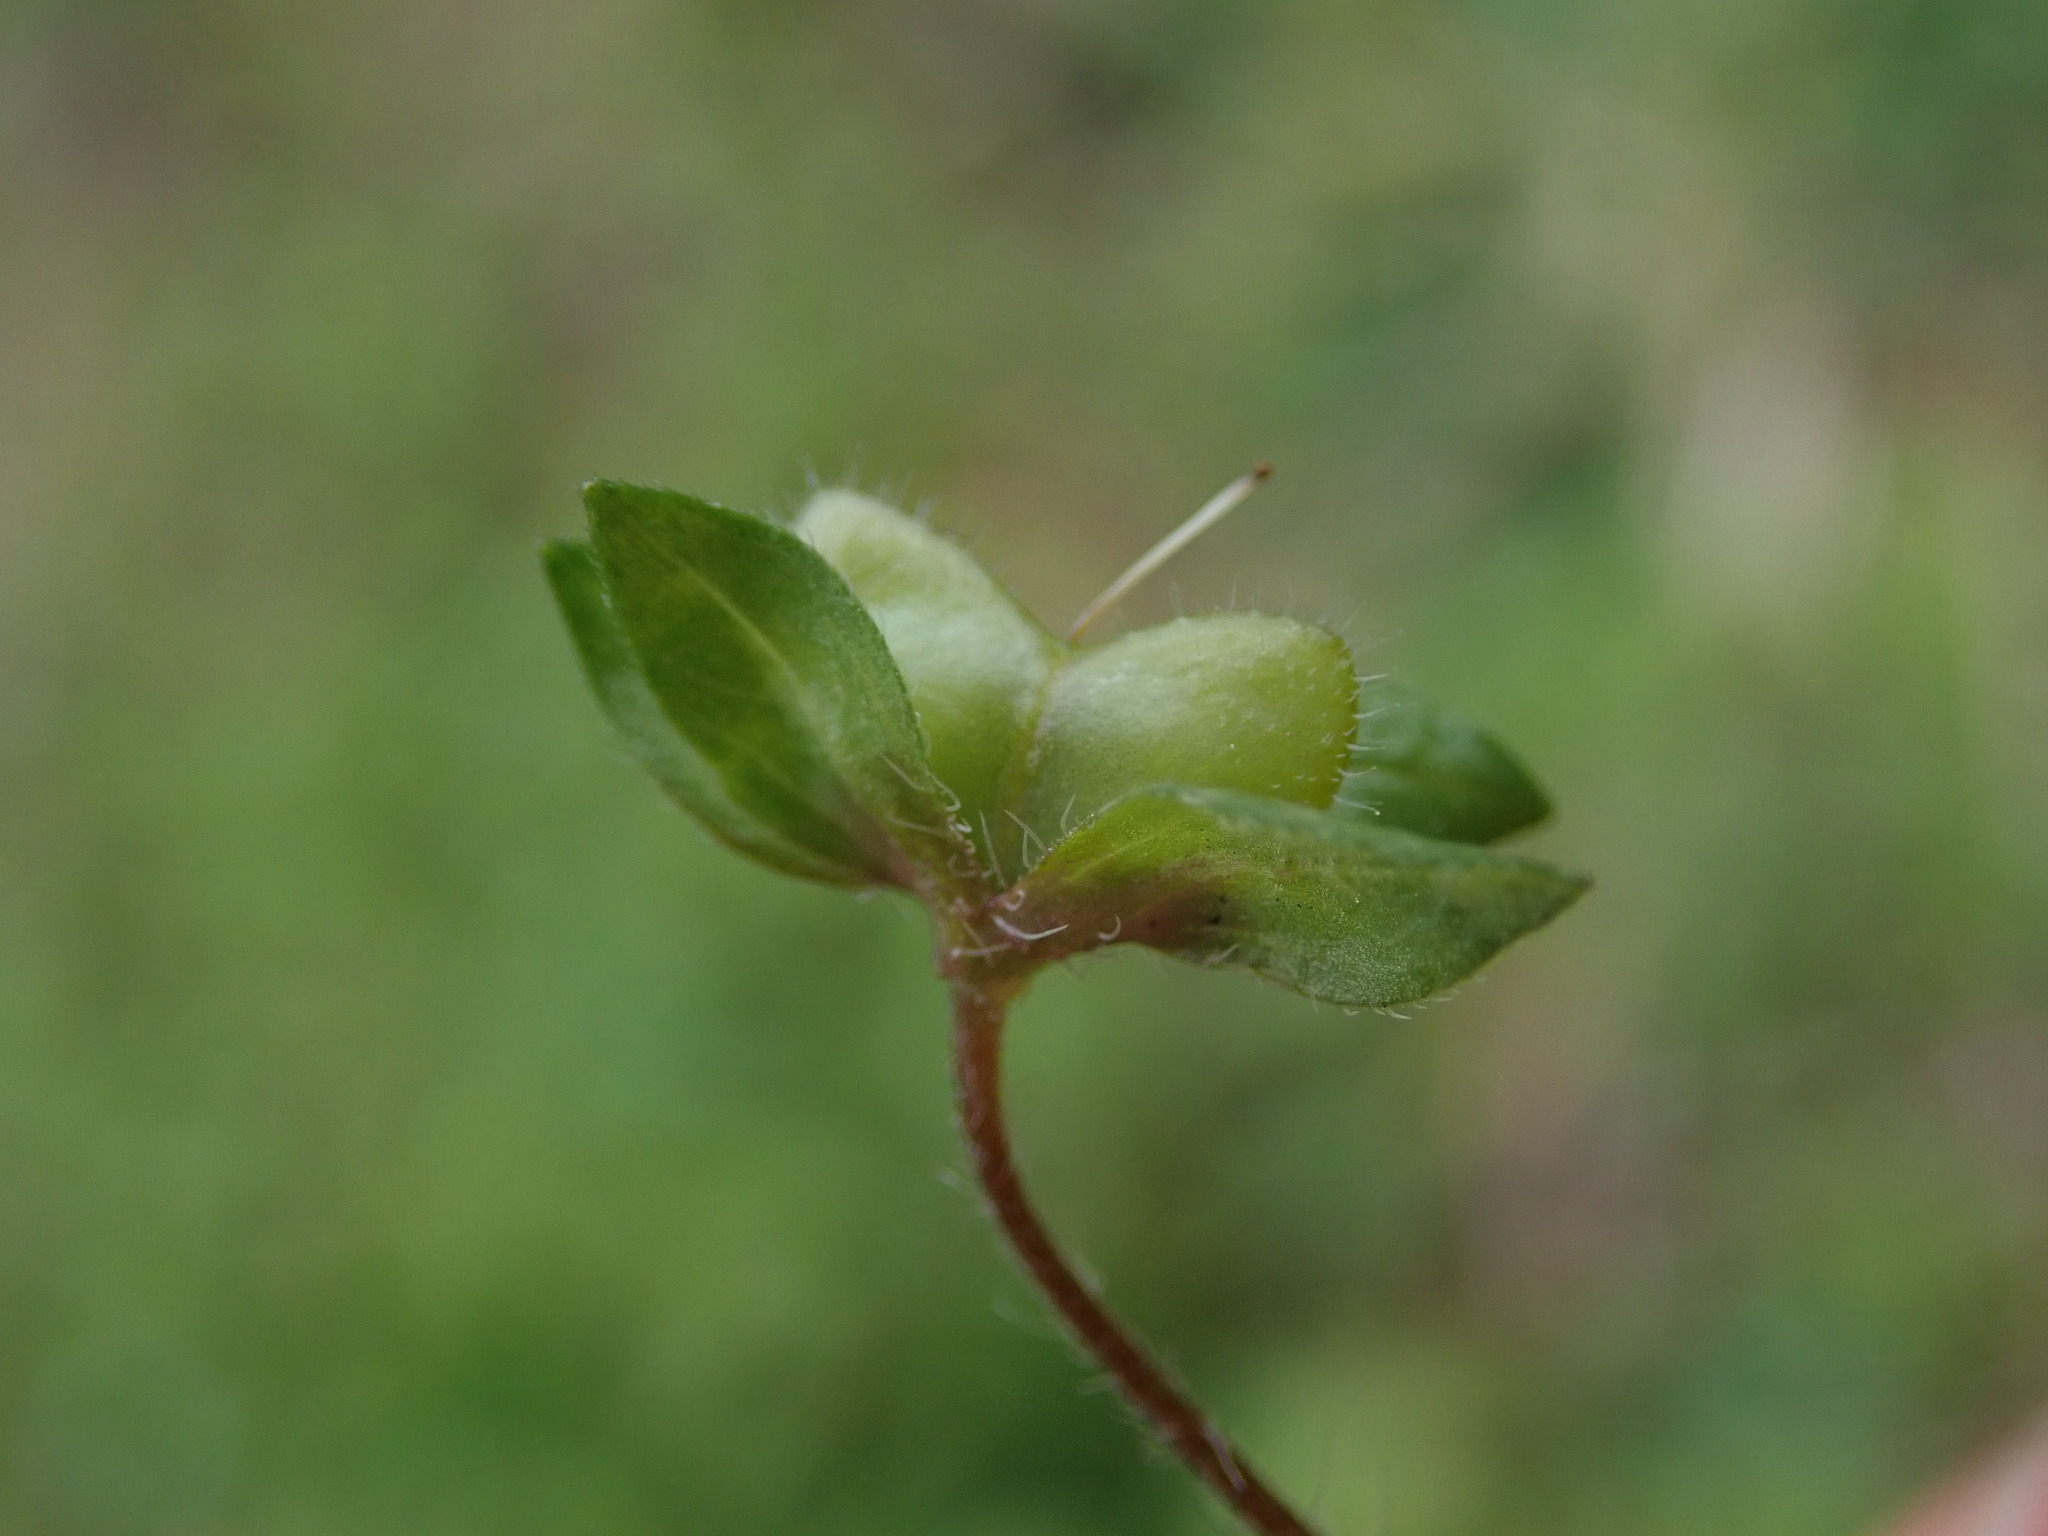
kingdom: Plantae
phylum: Tracheophyta
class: Magnoliopsida
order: Lamiales
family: Plantaginaceae
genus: Veronica
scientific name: Veronica persica
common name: Common field-speedwell
